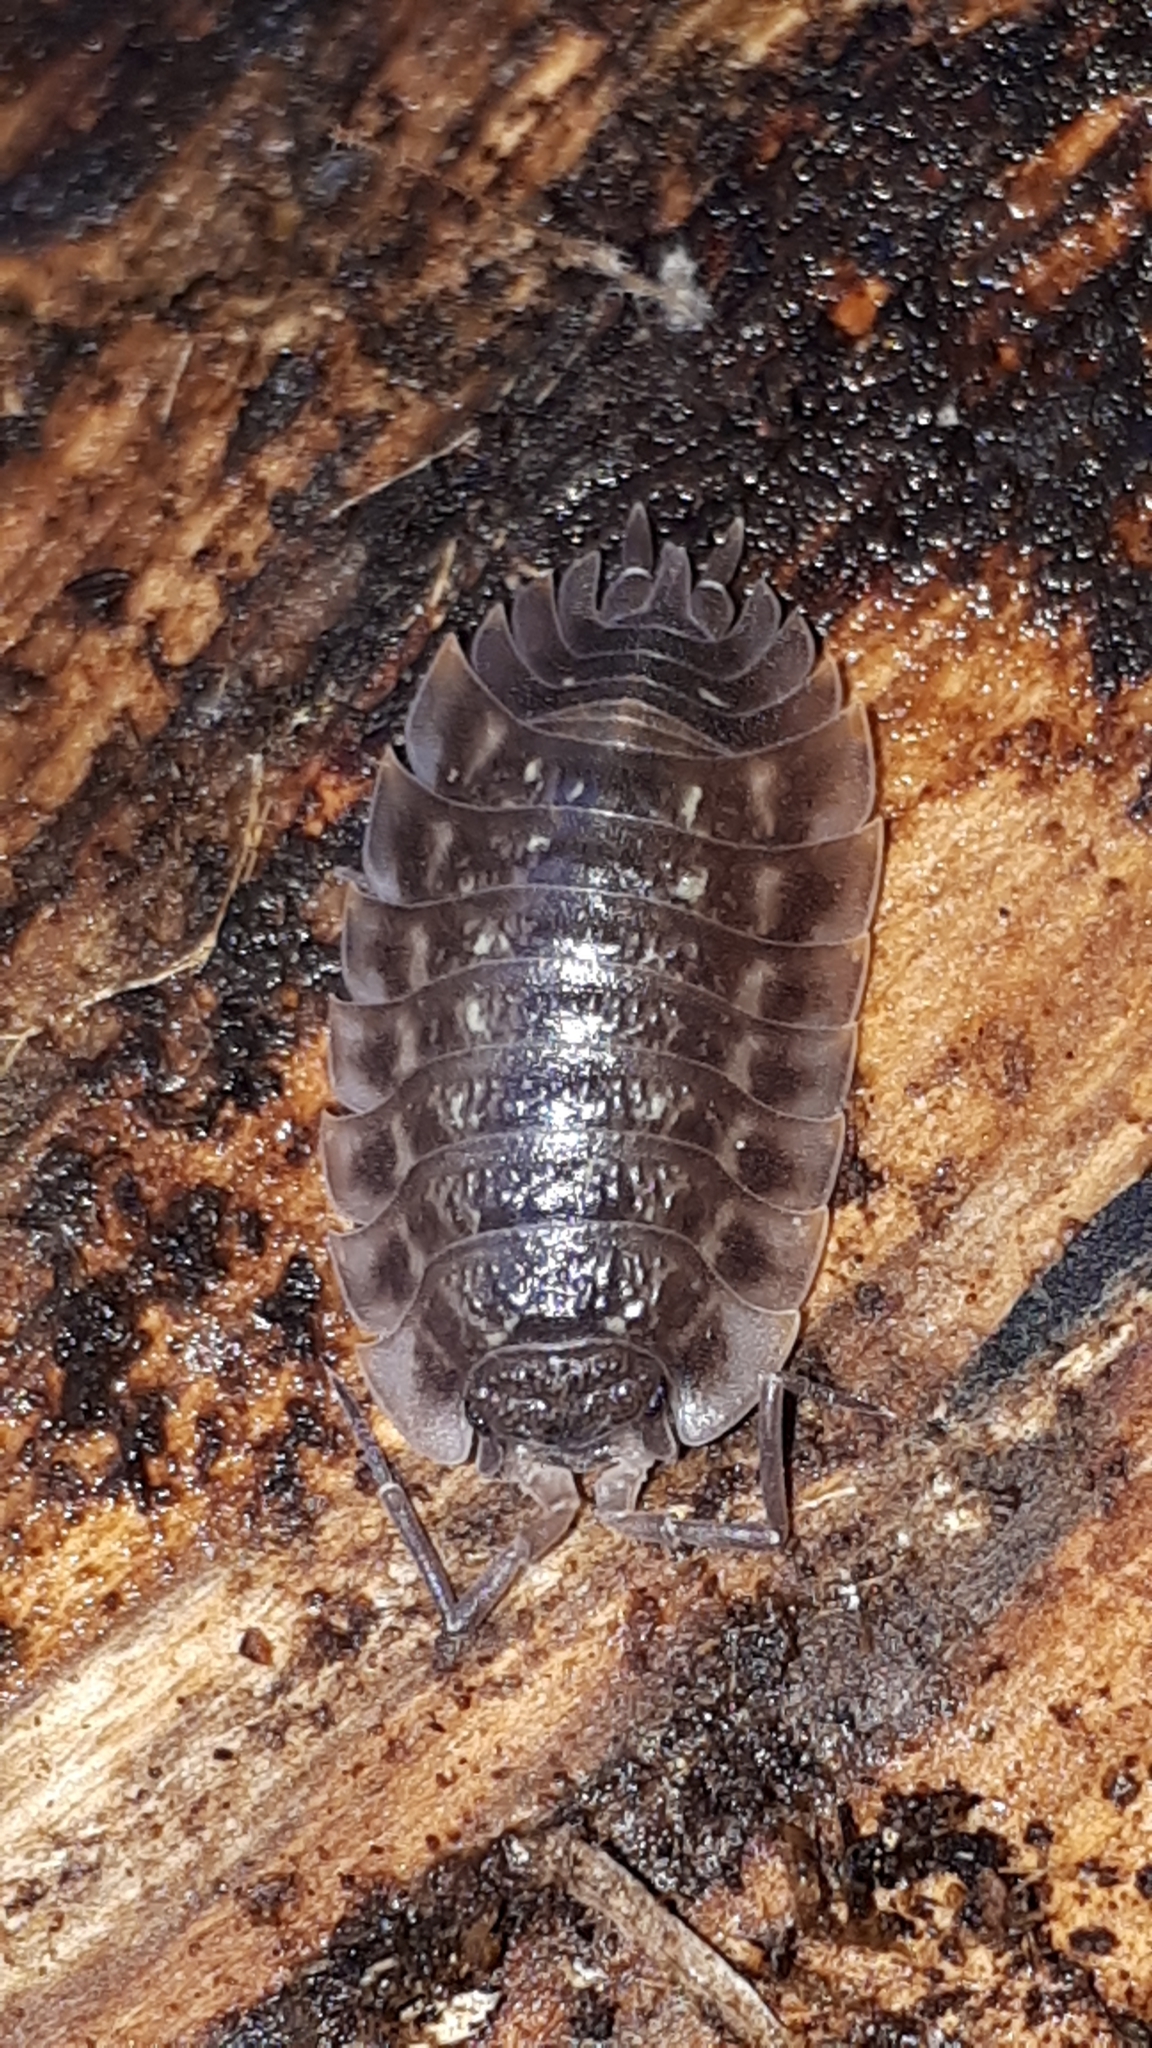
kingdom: Animalia
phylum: Arthropoda
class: Malacostraca
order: Isopoda
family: Oniscidae
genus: Oniscus
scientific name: Oniscus asellus
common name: Common shiny woodlouse
